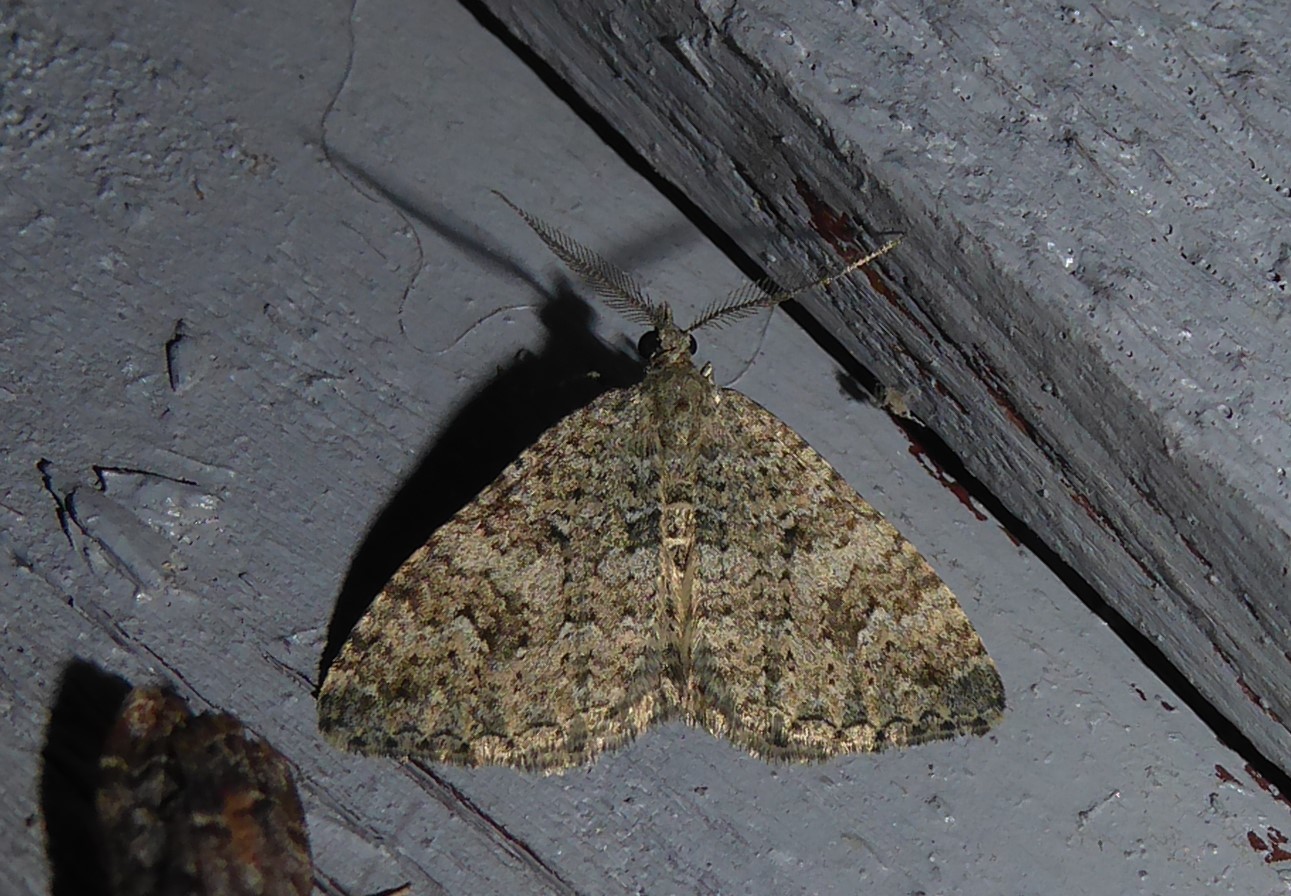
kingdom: Animalia
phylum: Arthropoda
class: Insecta
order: Lepidoptera
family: Geometridae
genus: Helastia
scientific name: Helastia corcularia
